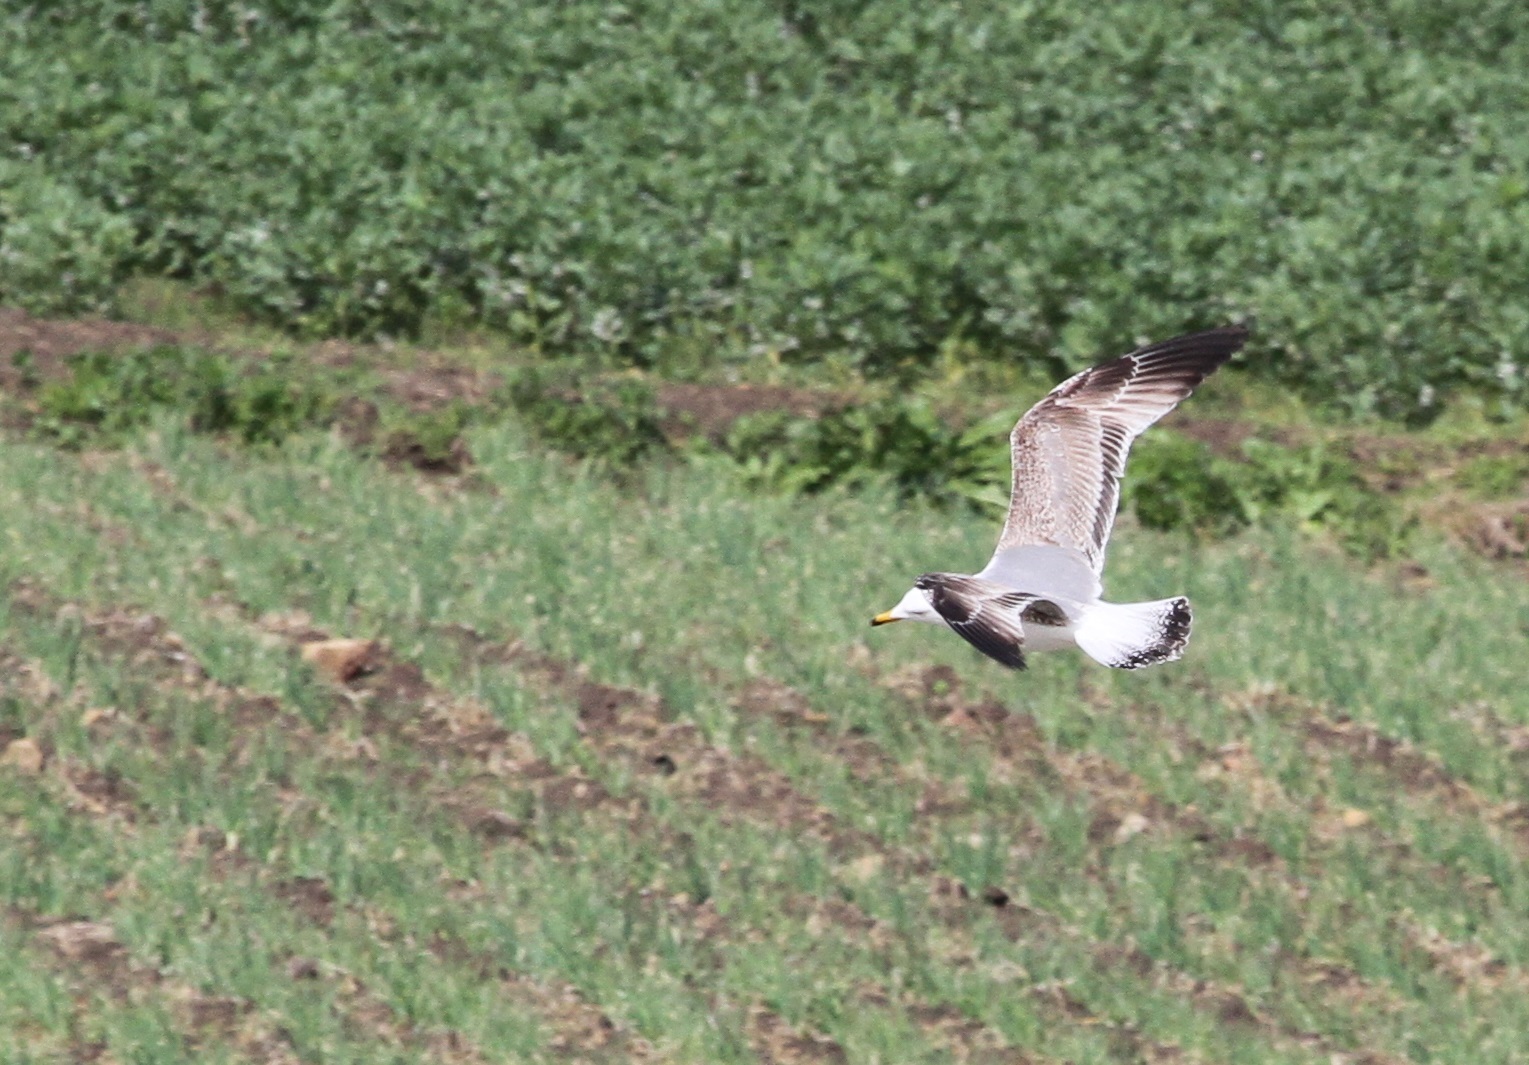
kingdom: Animalia
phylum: Chordata
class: Aves
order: Charadriiformes
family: Laridae
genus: Larus
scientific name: Larus michahellis
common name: Yellow-legged gull
